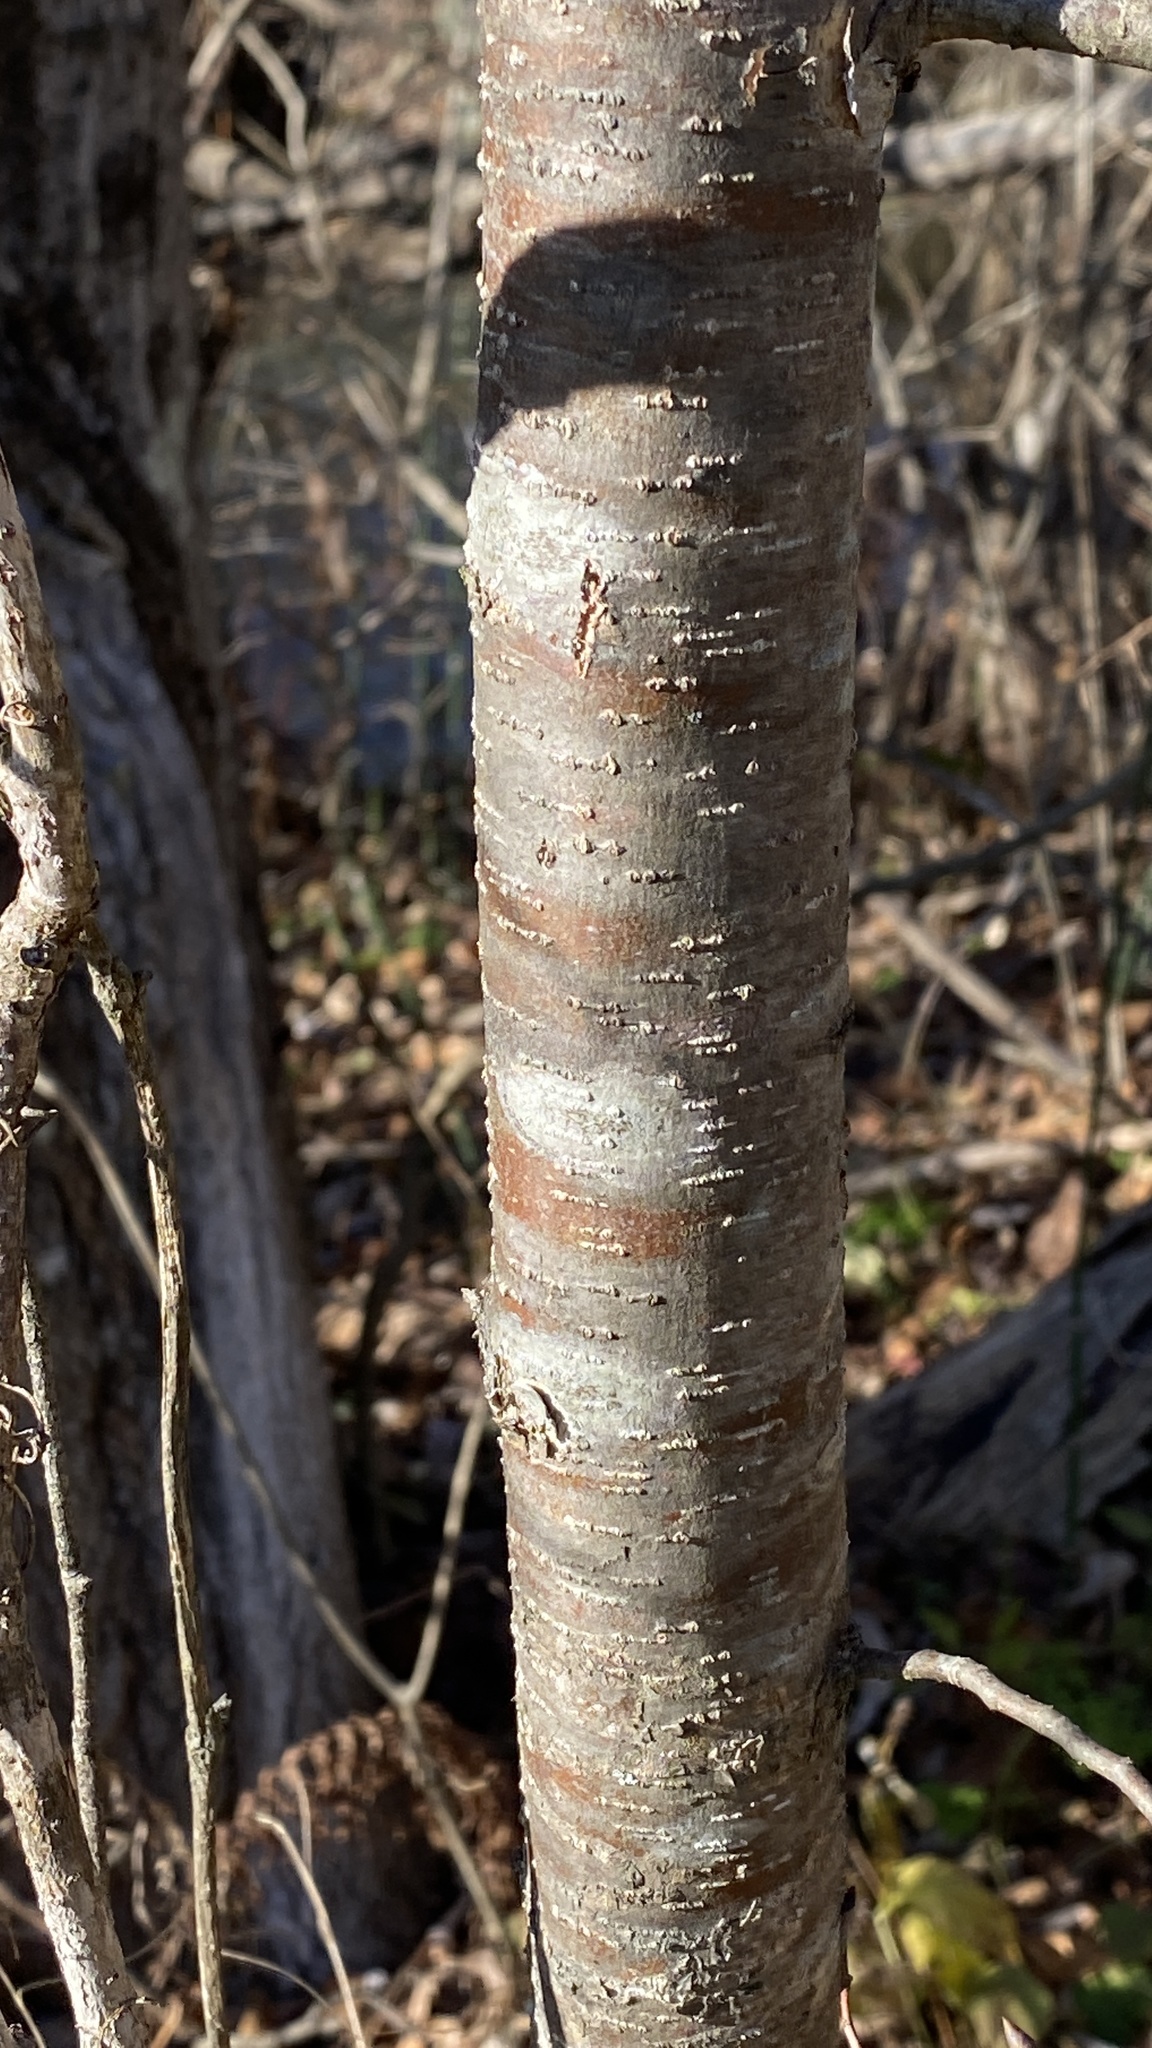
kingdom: Plantae
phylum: Tracheophyta
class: Magnoliopsida
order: Fagales
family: Betulaceae
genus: Ostrya
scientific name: Ostrya virginiana
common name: Ironwood
